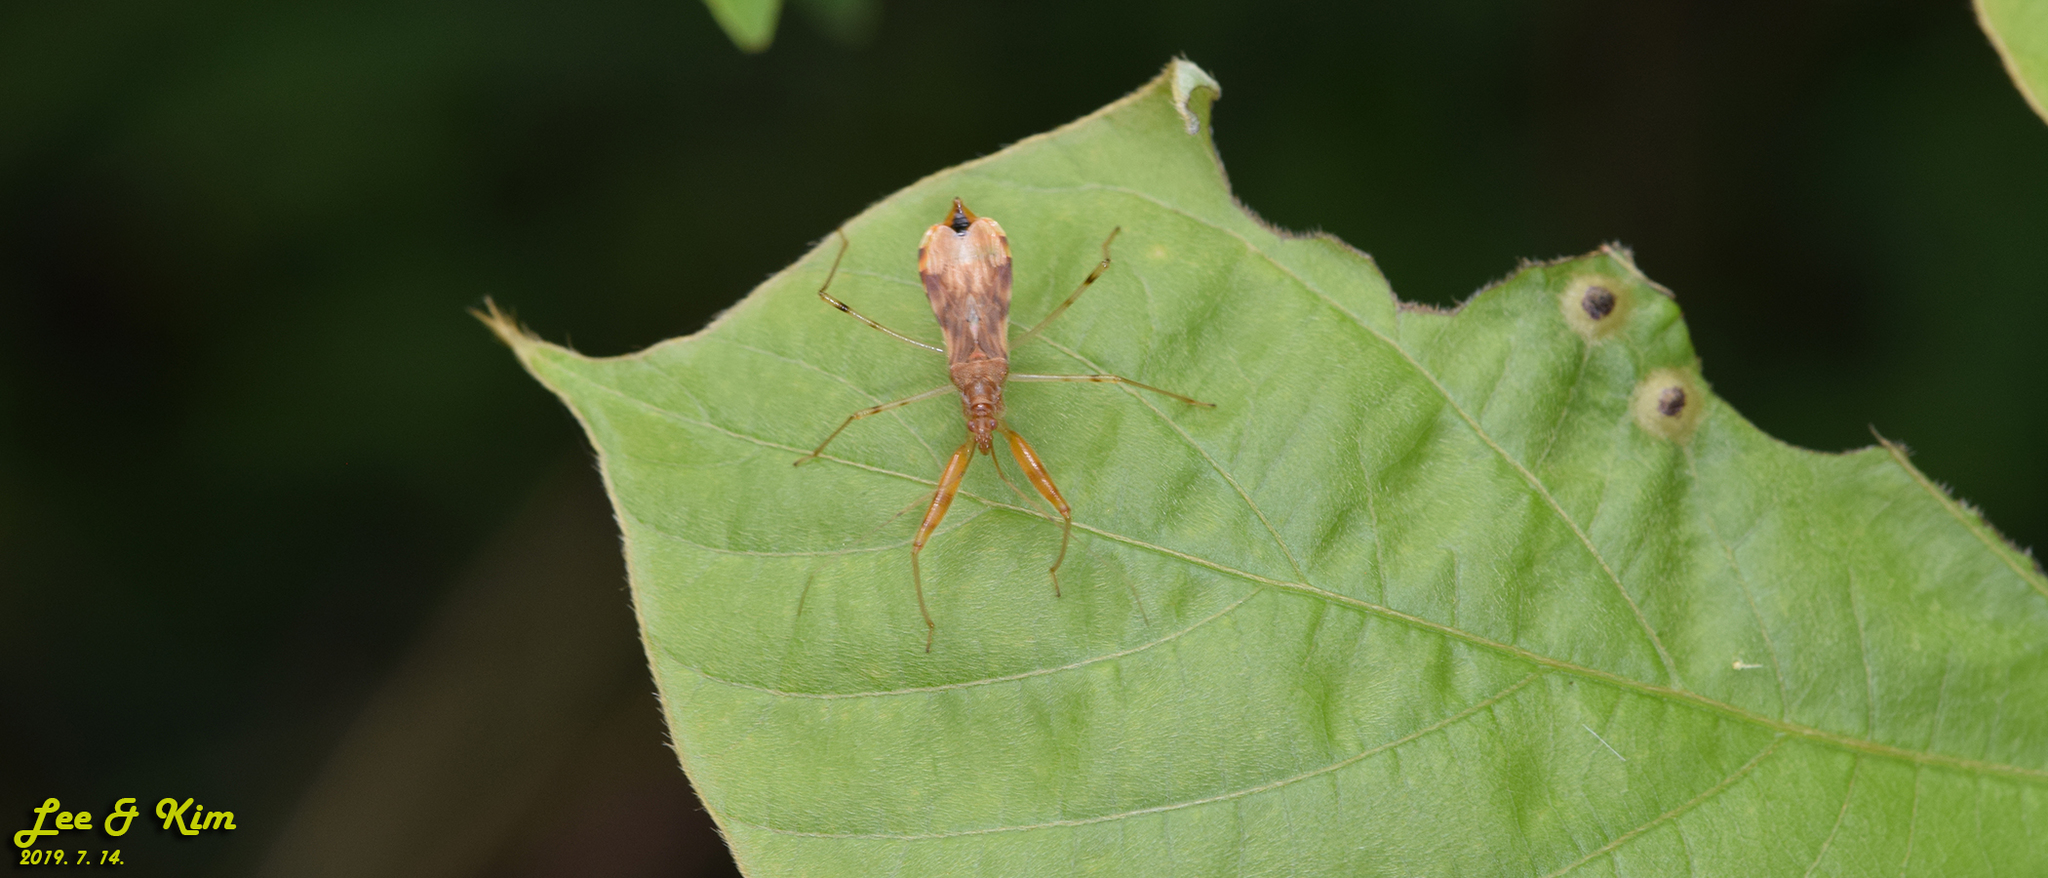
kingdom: Animalia
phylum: Arthropoda
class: Insecta
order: Hemiptera
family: Nabidae
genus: Gorpis
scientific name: Gorpis
